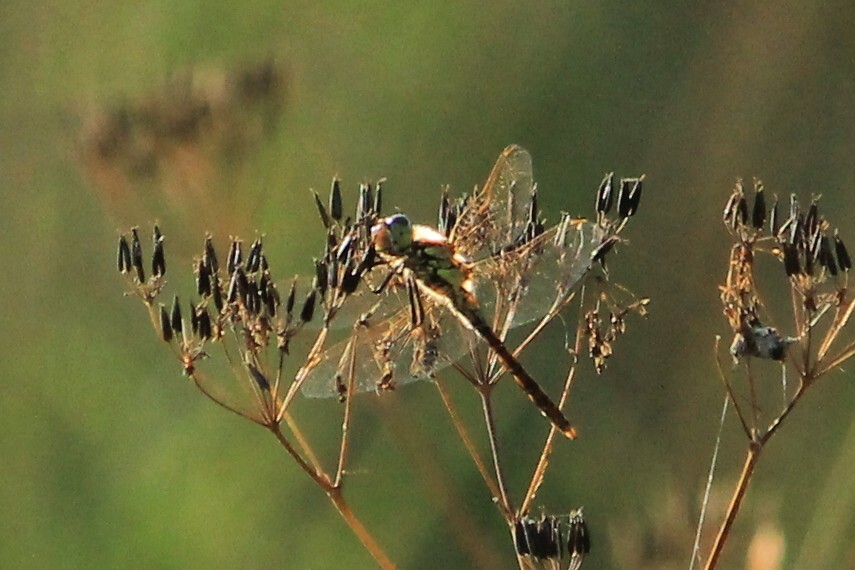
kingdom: Animalia
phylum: Arthropoda
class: Insecta
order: Odonata
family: Libellulidae
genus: Sympetrum
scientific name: Sympetrum vulgatum
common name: Vagrant darter
